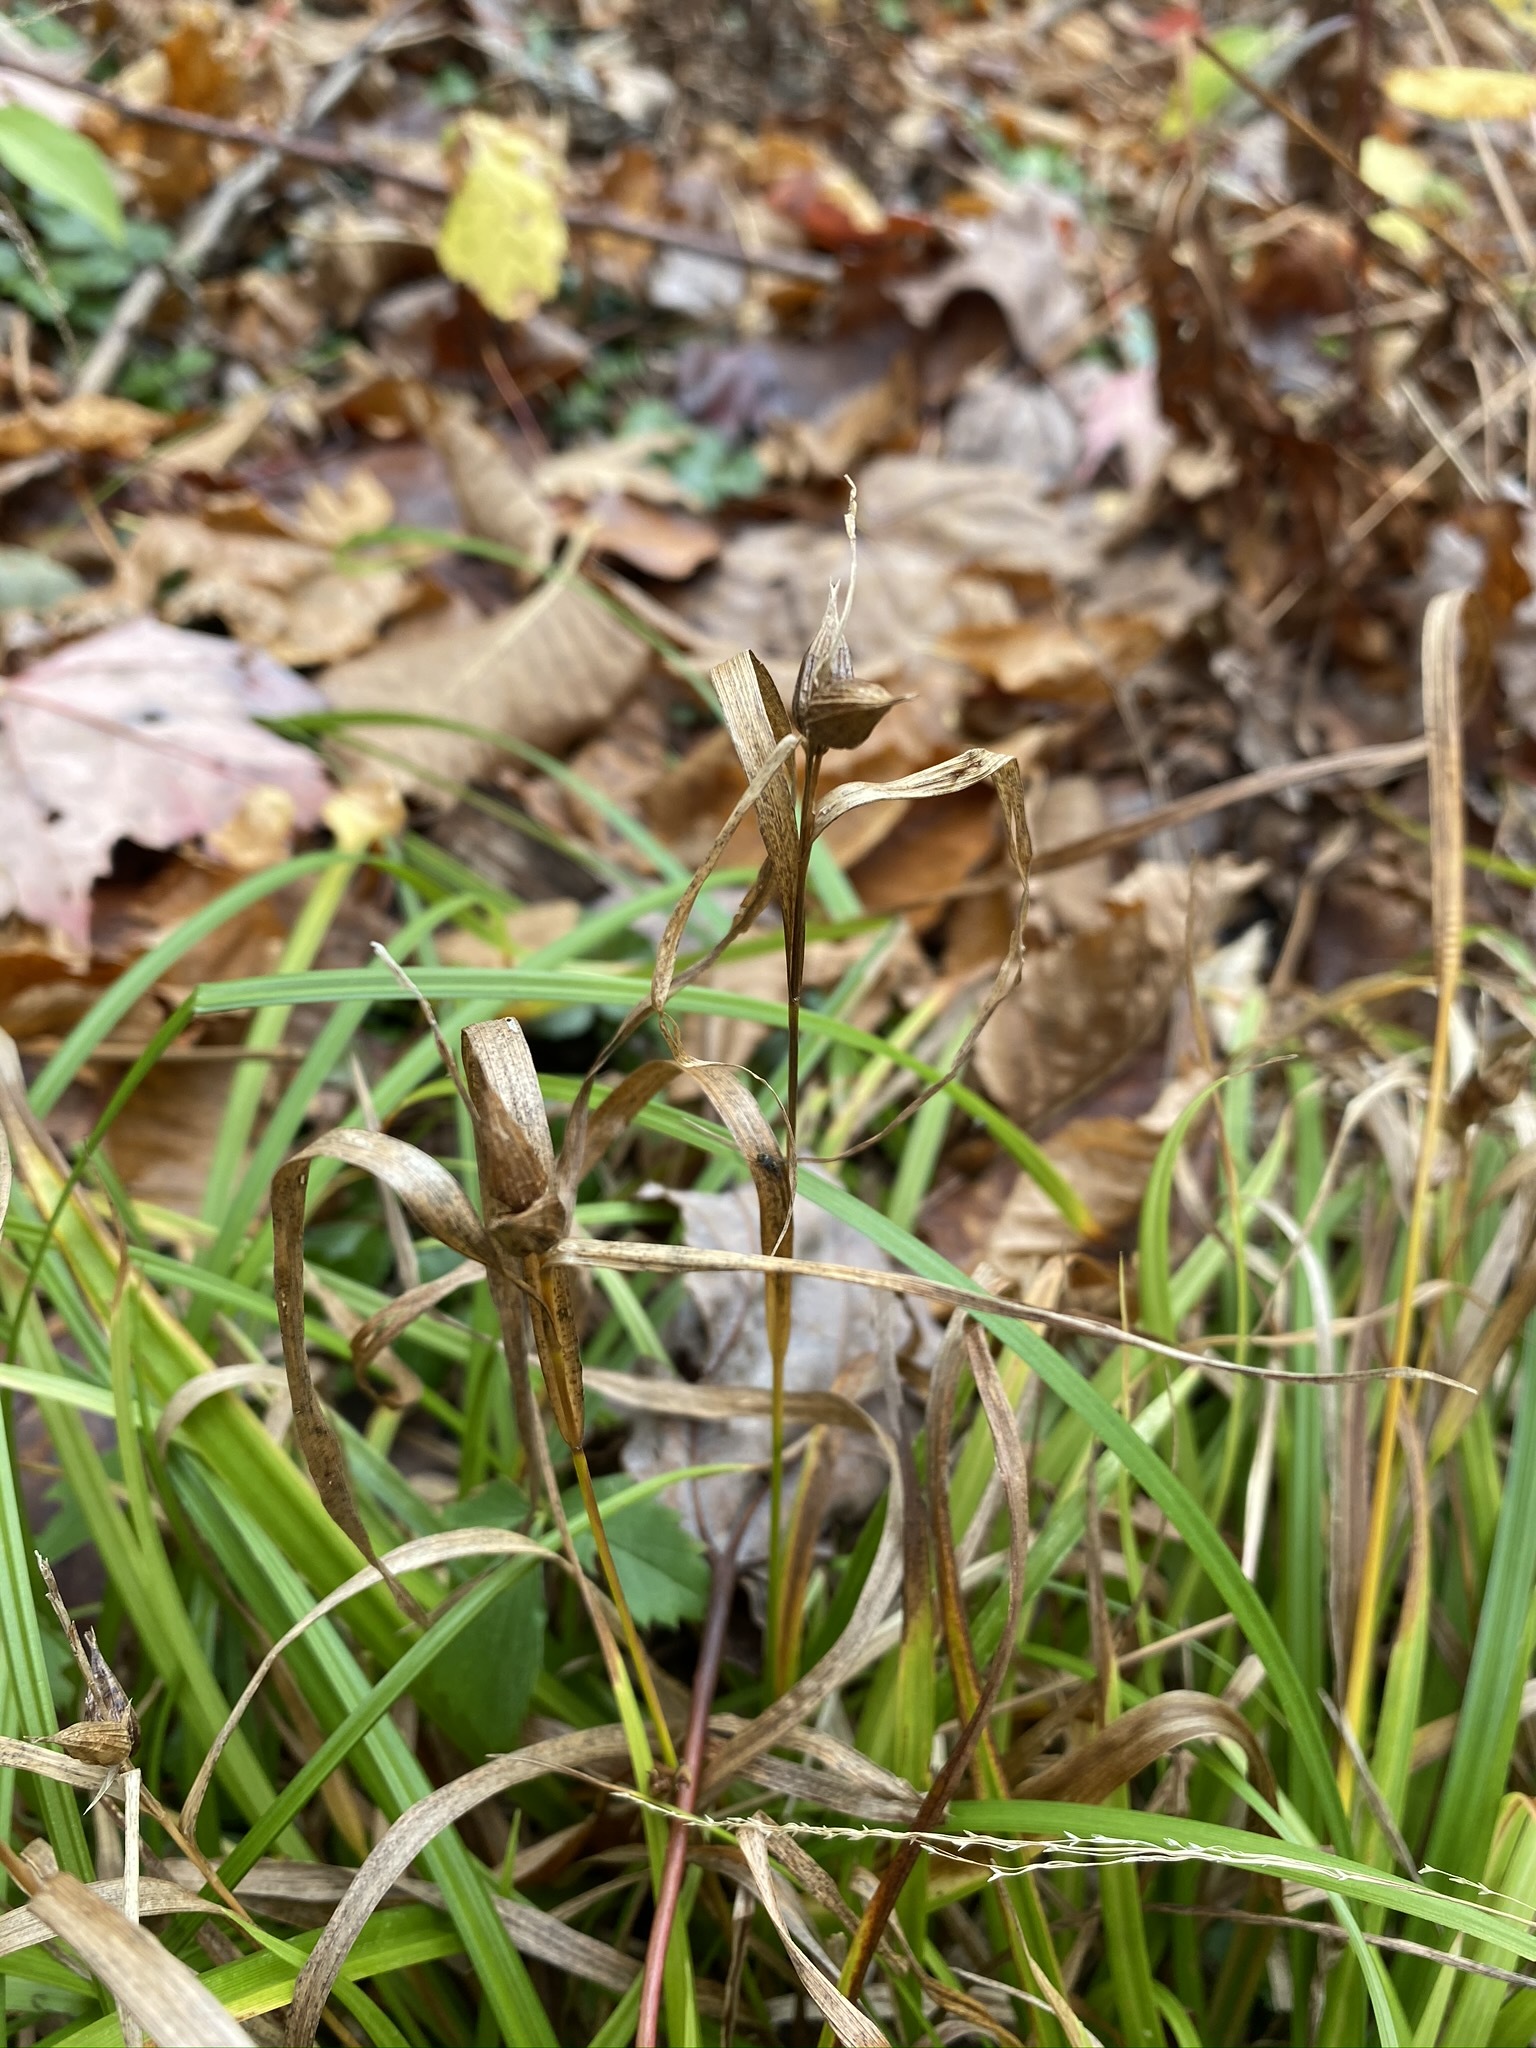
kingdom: Plantae
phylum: Tracheophyta
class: Liliopsida
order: Poales
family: Cyperaceae
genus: Carex
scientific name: Carex intumescens
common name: Greater bladder sedge
